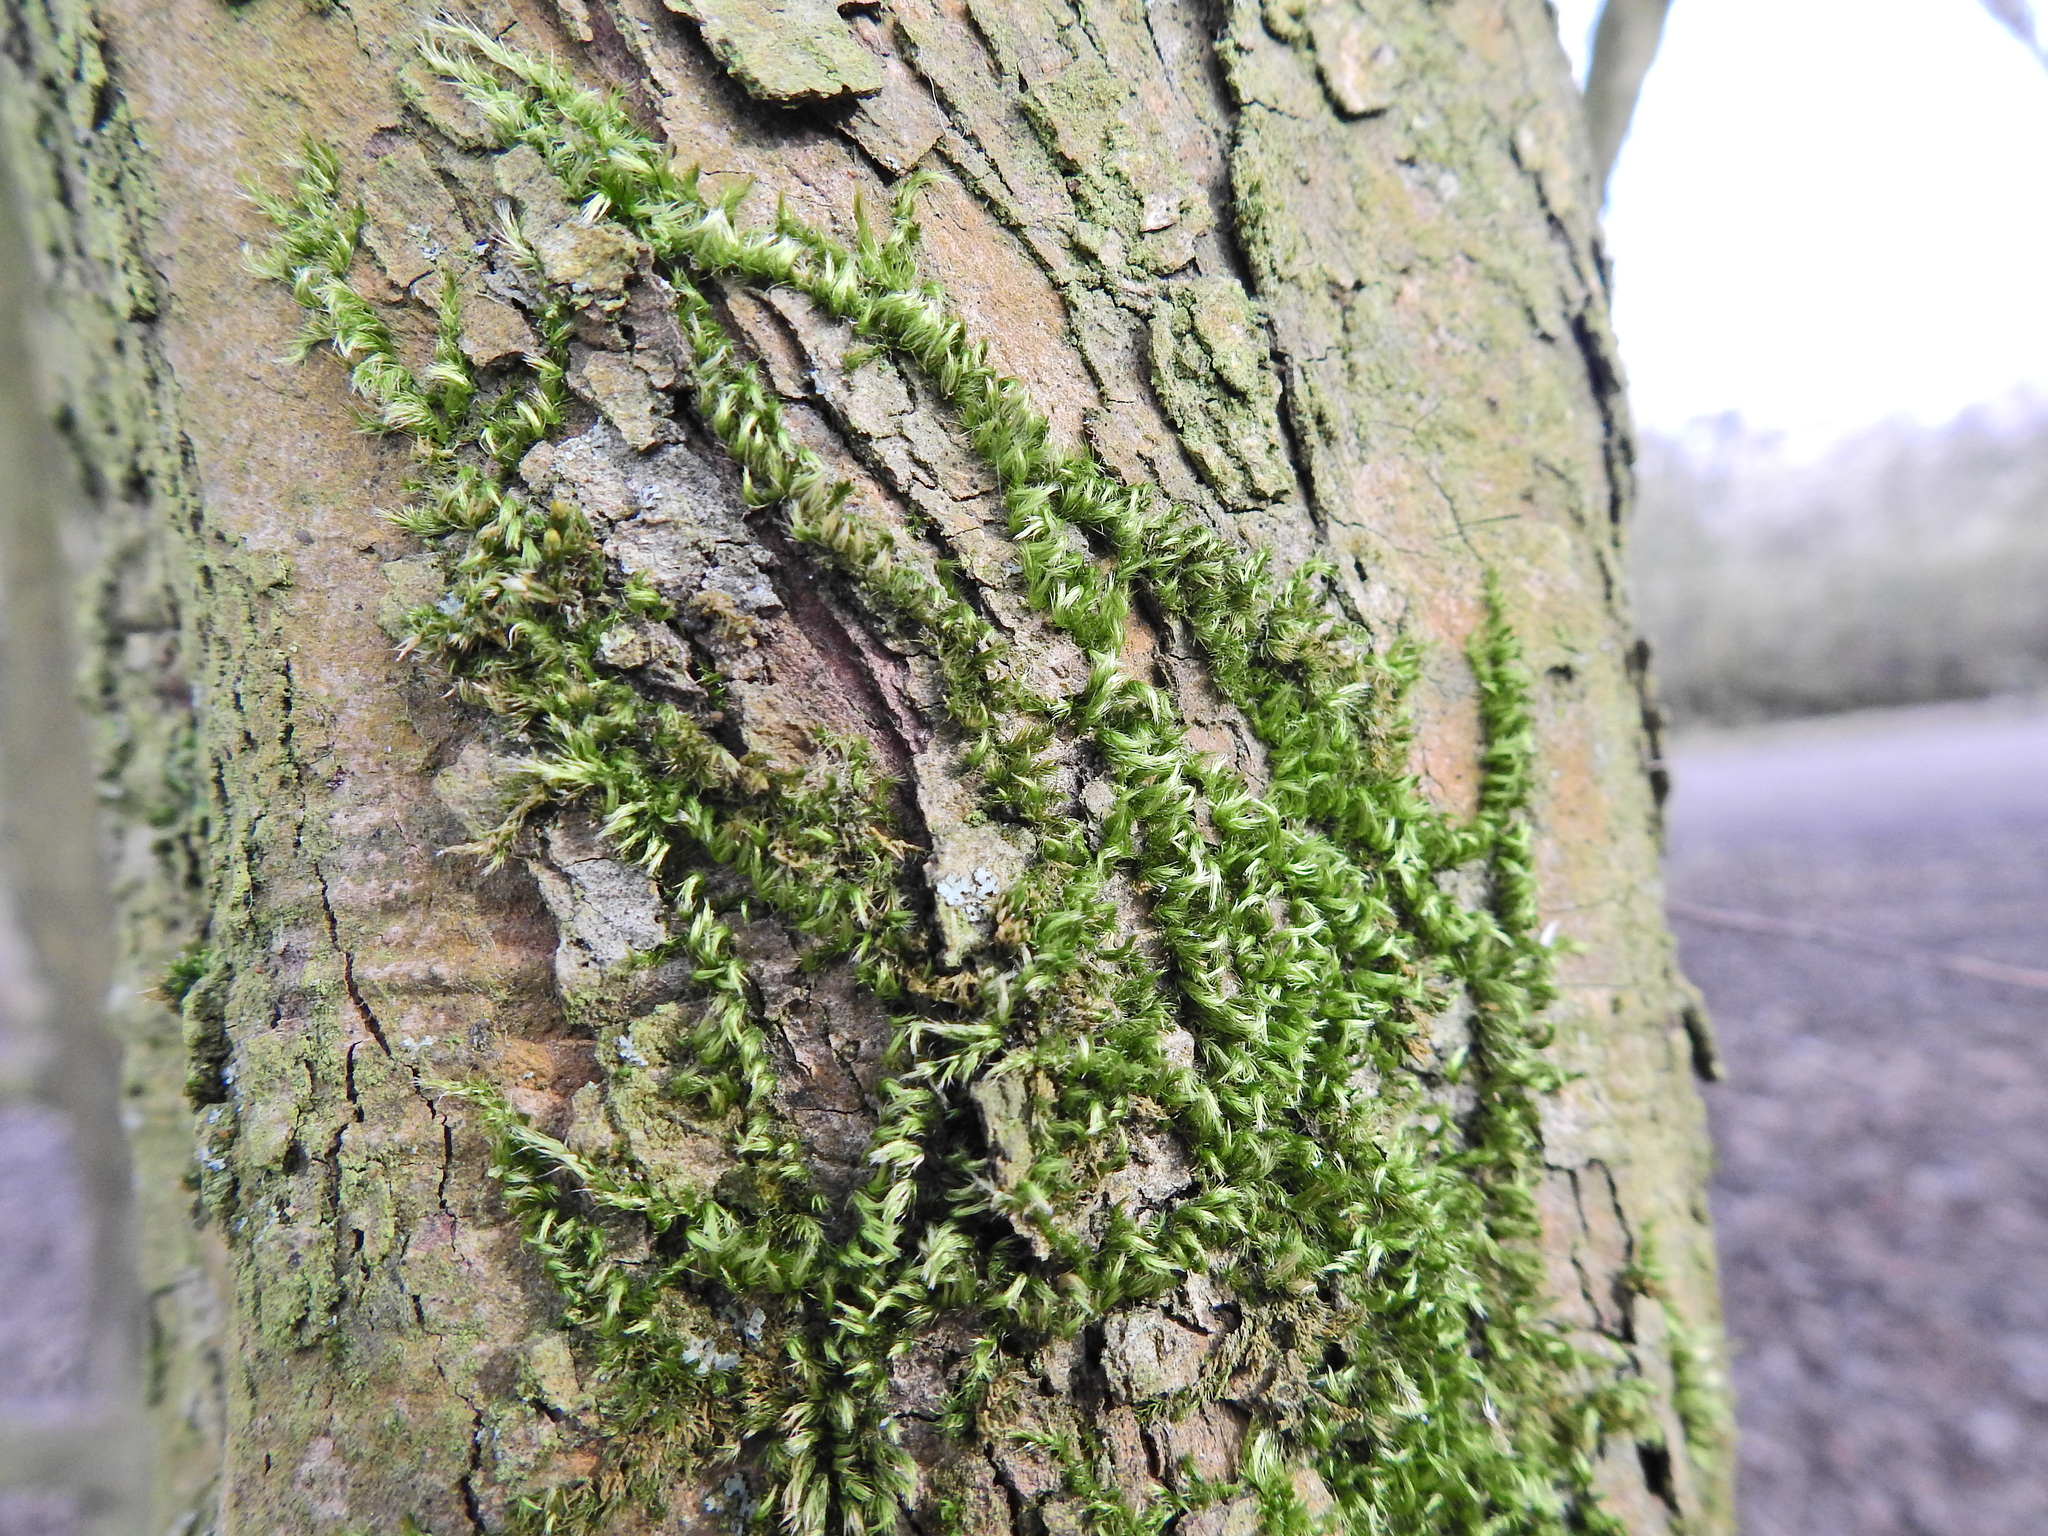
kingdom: Plantae
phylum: Bryophyta
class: Bryopsida
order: Hypnales
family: Brachytheciaceae
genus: Homalothecium
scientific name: Homalothecium sericeum
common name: Silky wall feather-moss
